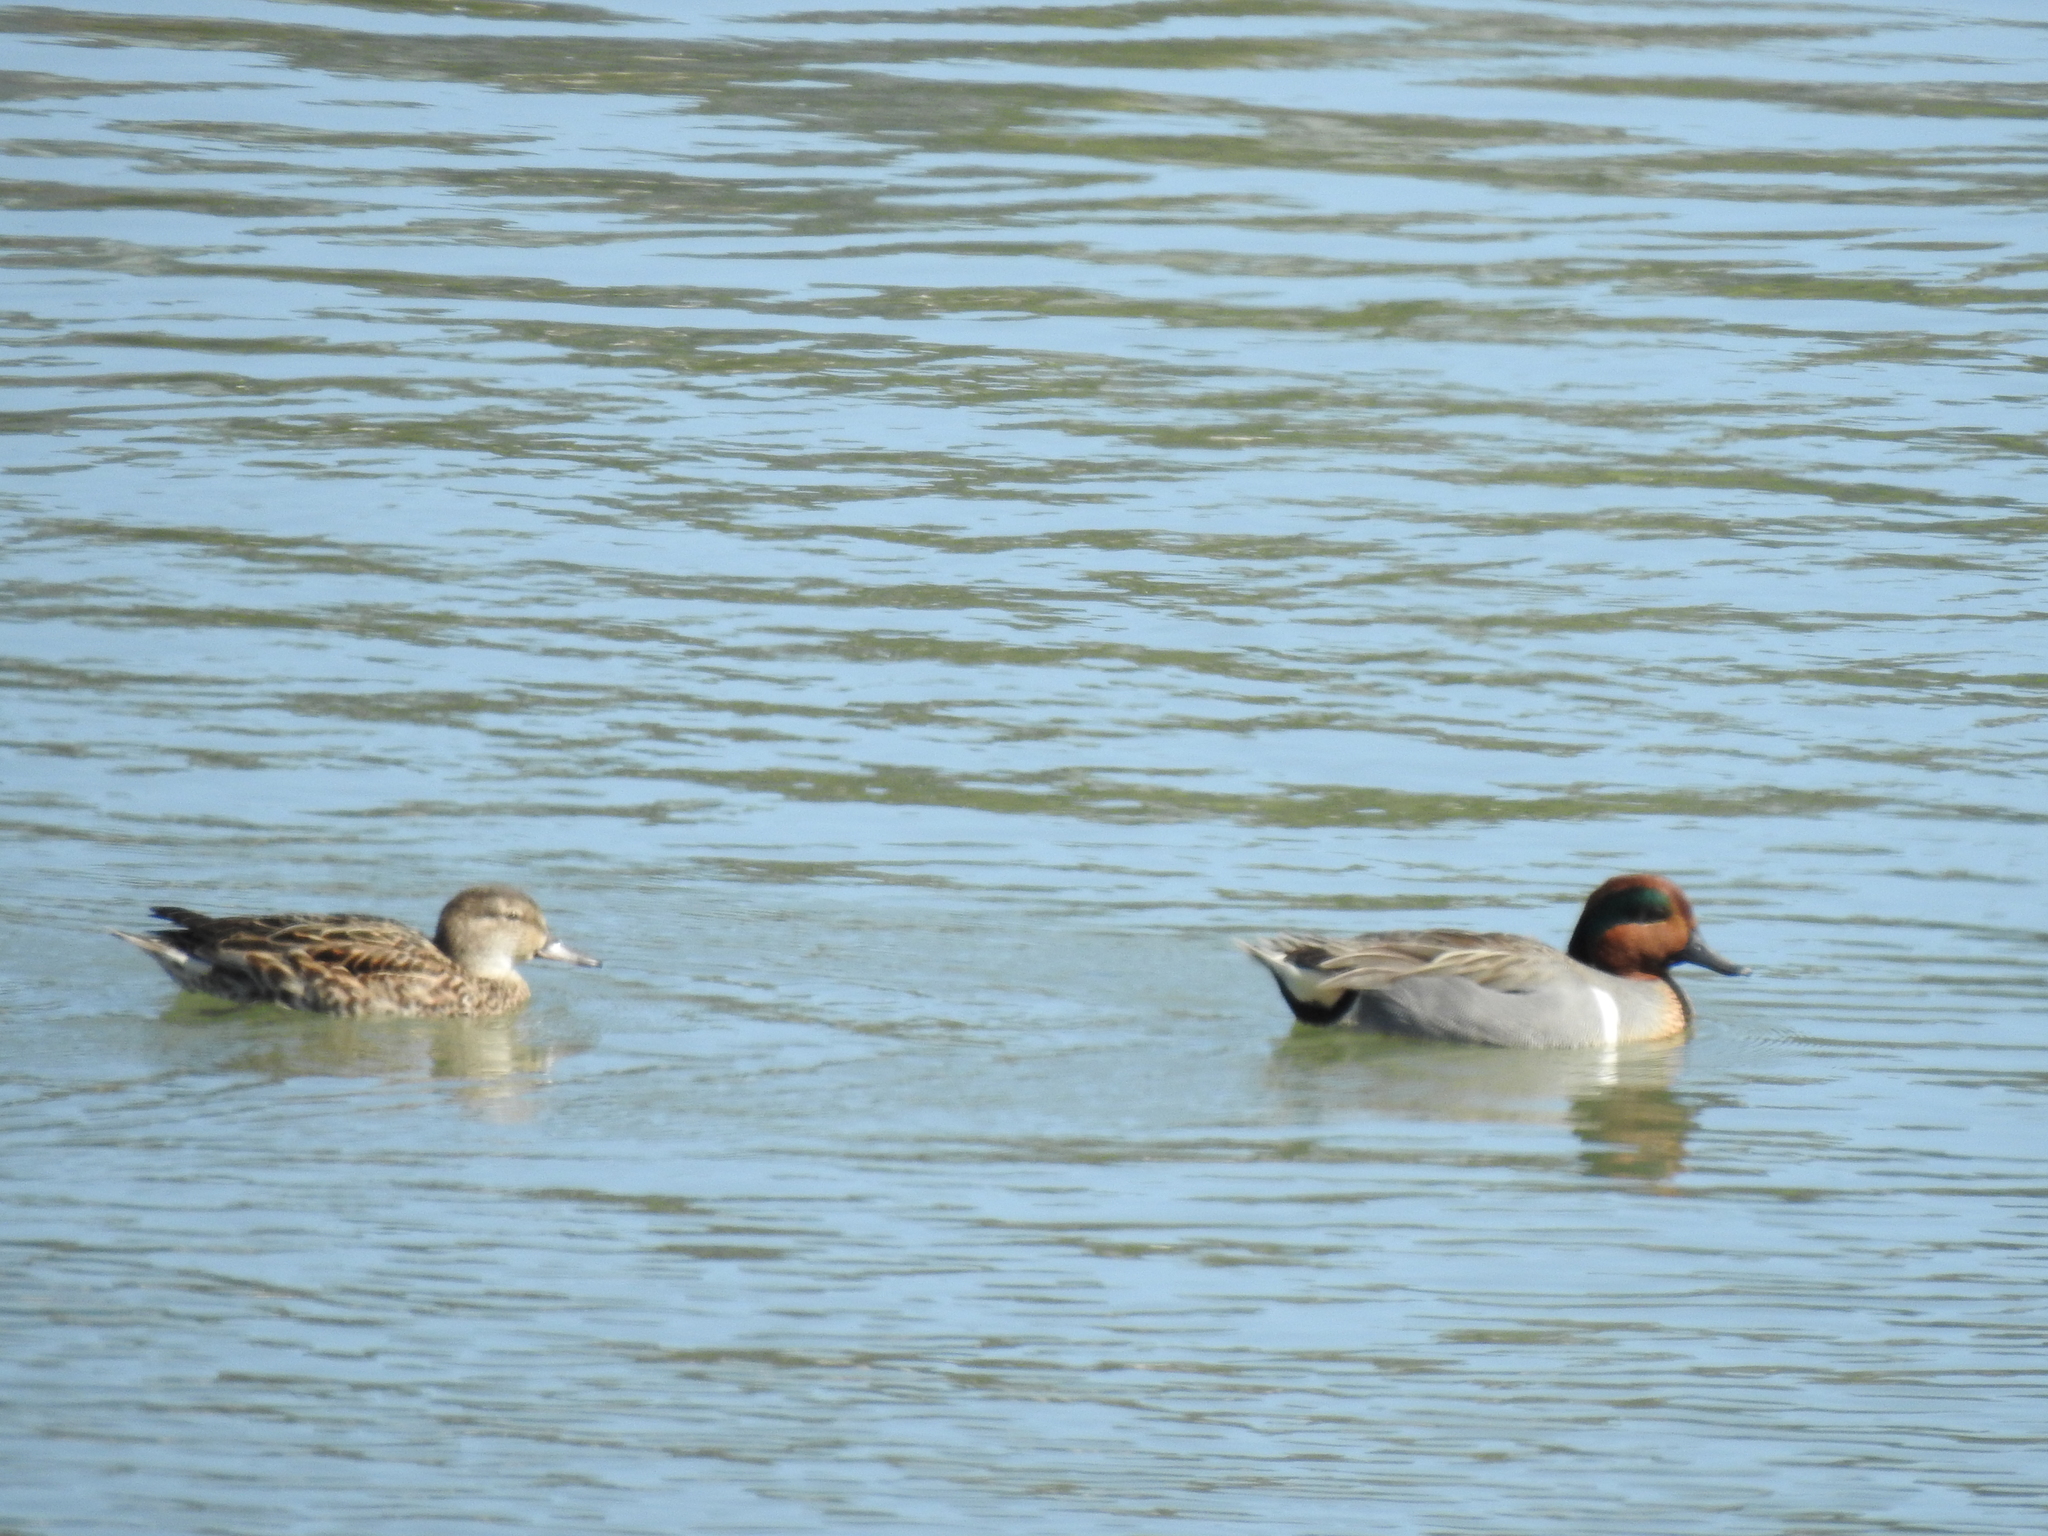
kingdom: Animalia
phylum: Chordata
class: Aves
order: Anseriformes
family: Anatidae
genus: Anas
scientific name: Anas crecca
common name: Eurasian teal
